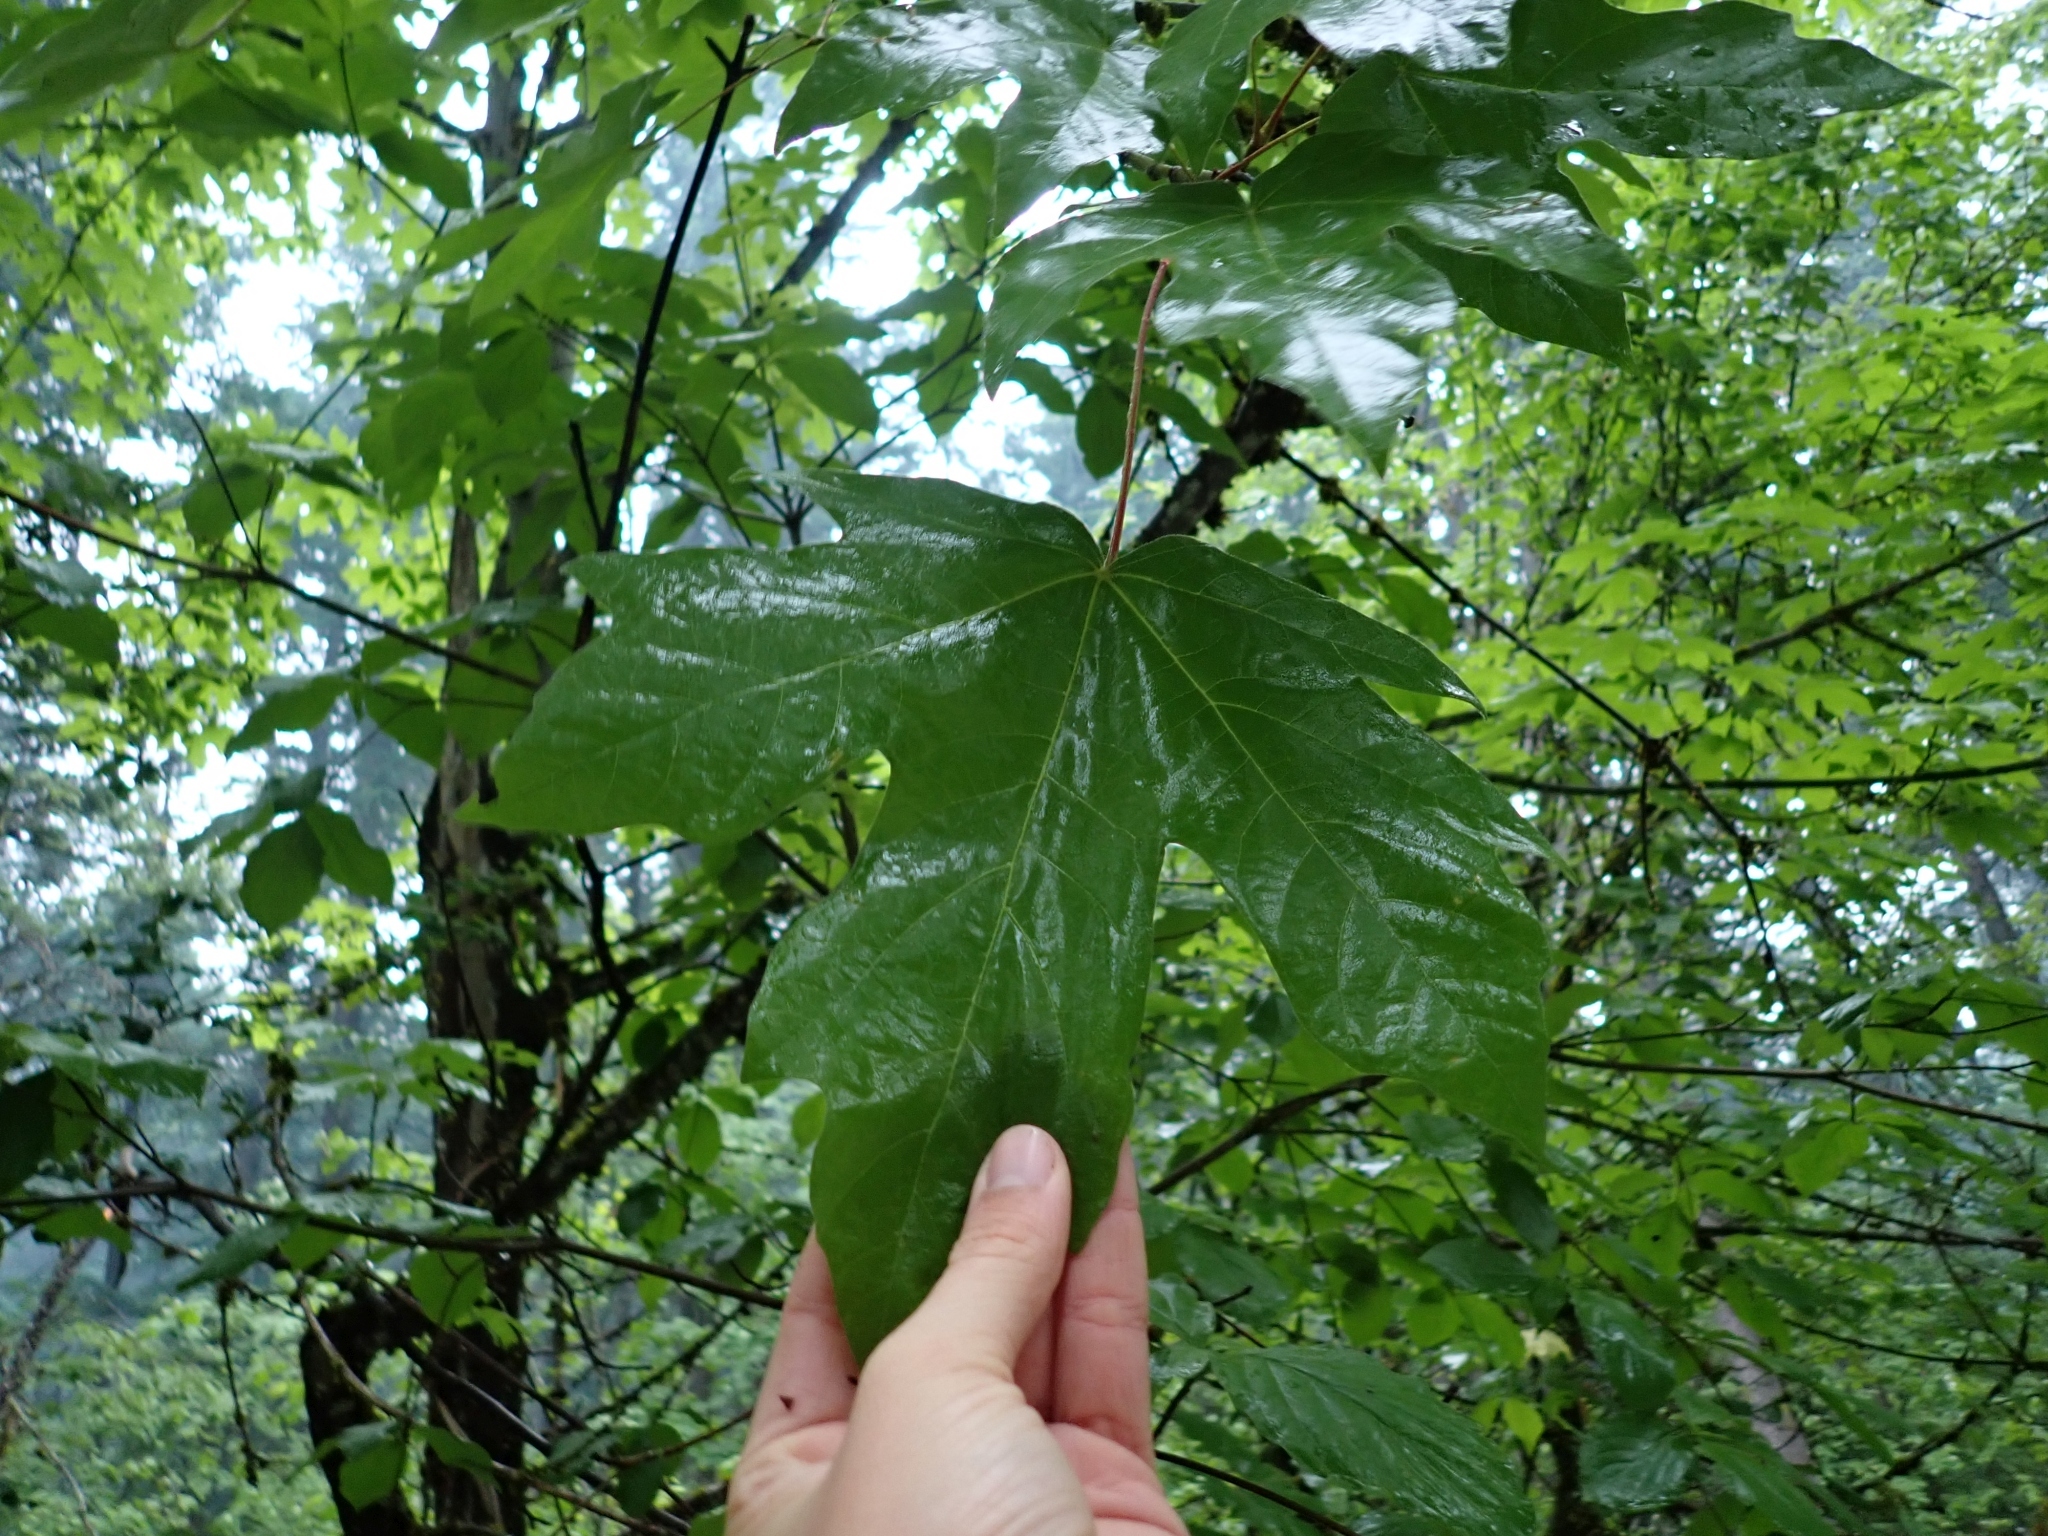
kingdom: Plantae
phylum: Tracheophyta
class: Magnoliopsida
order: Sapindales
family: Sapindaceae
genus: Acer
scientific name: Acer macrophyllum
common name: Oregon maple
